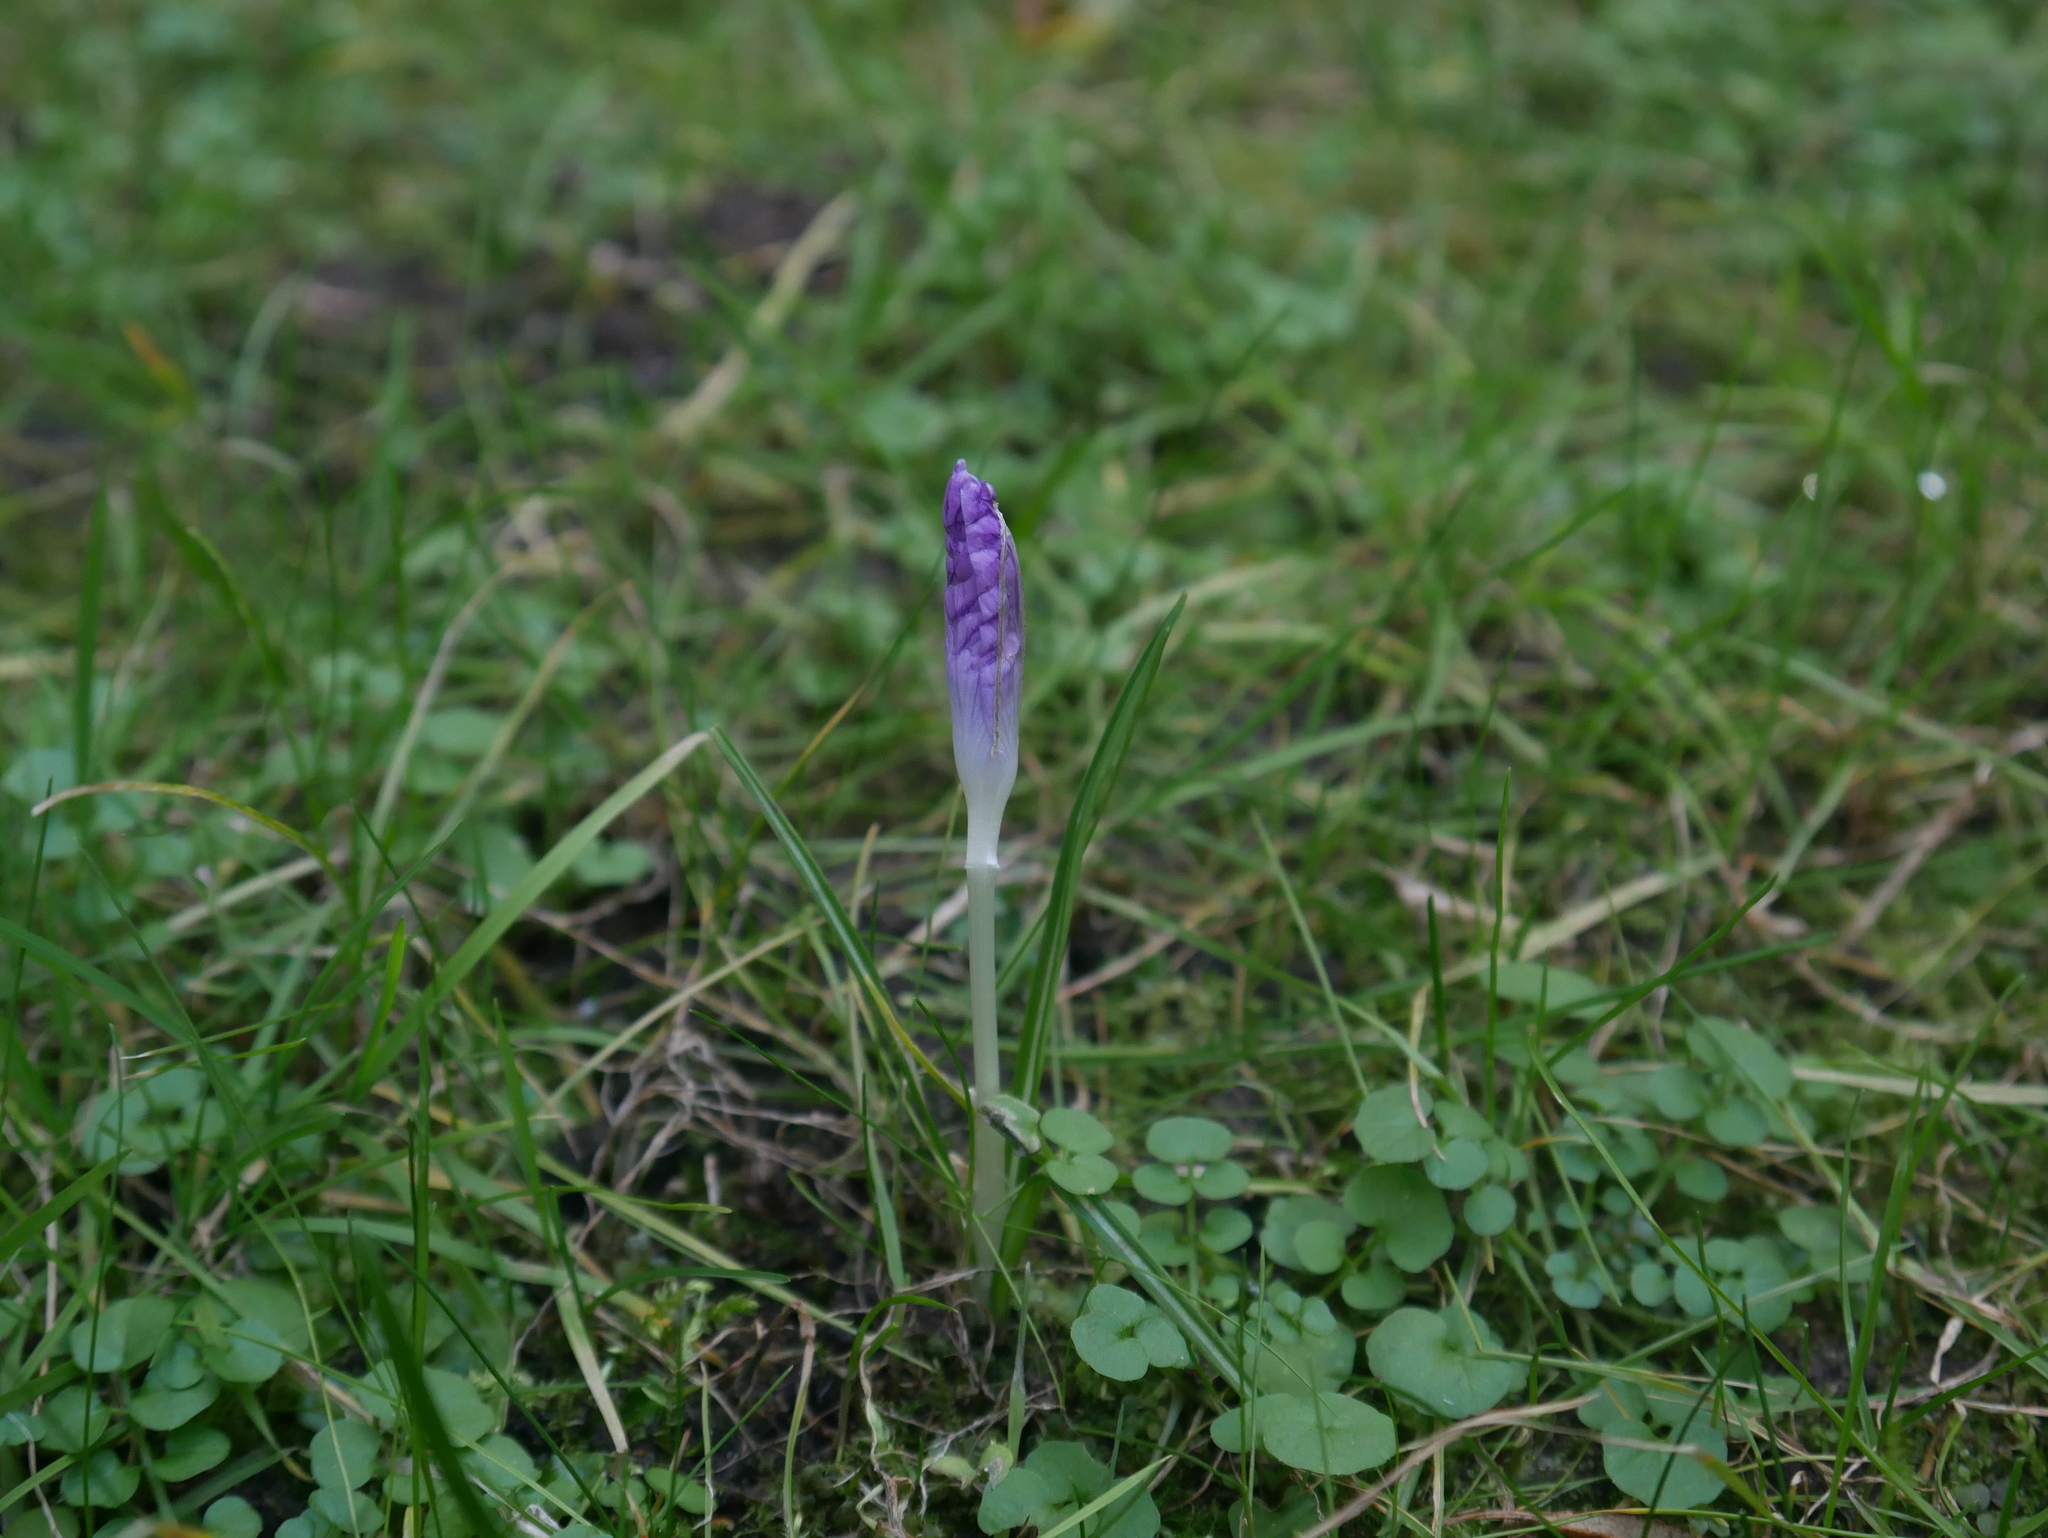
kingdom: Plantae
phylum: Tracheophyta
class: Liliopsida
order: Asparagales
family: Iridaceae
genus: Crocus
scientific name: Crocus tommasinianus
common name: Early crocus
